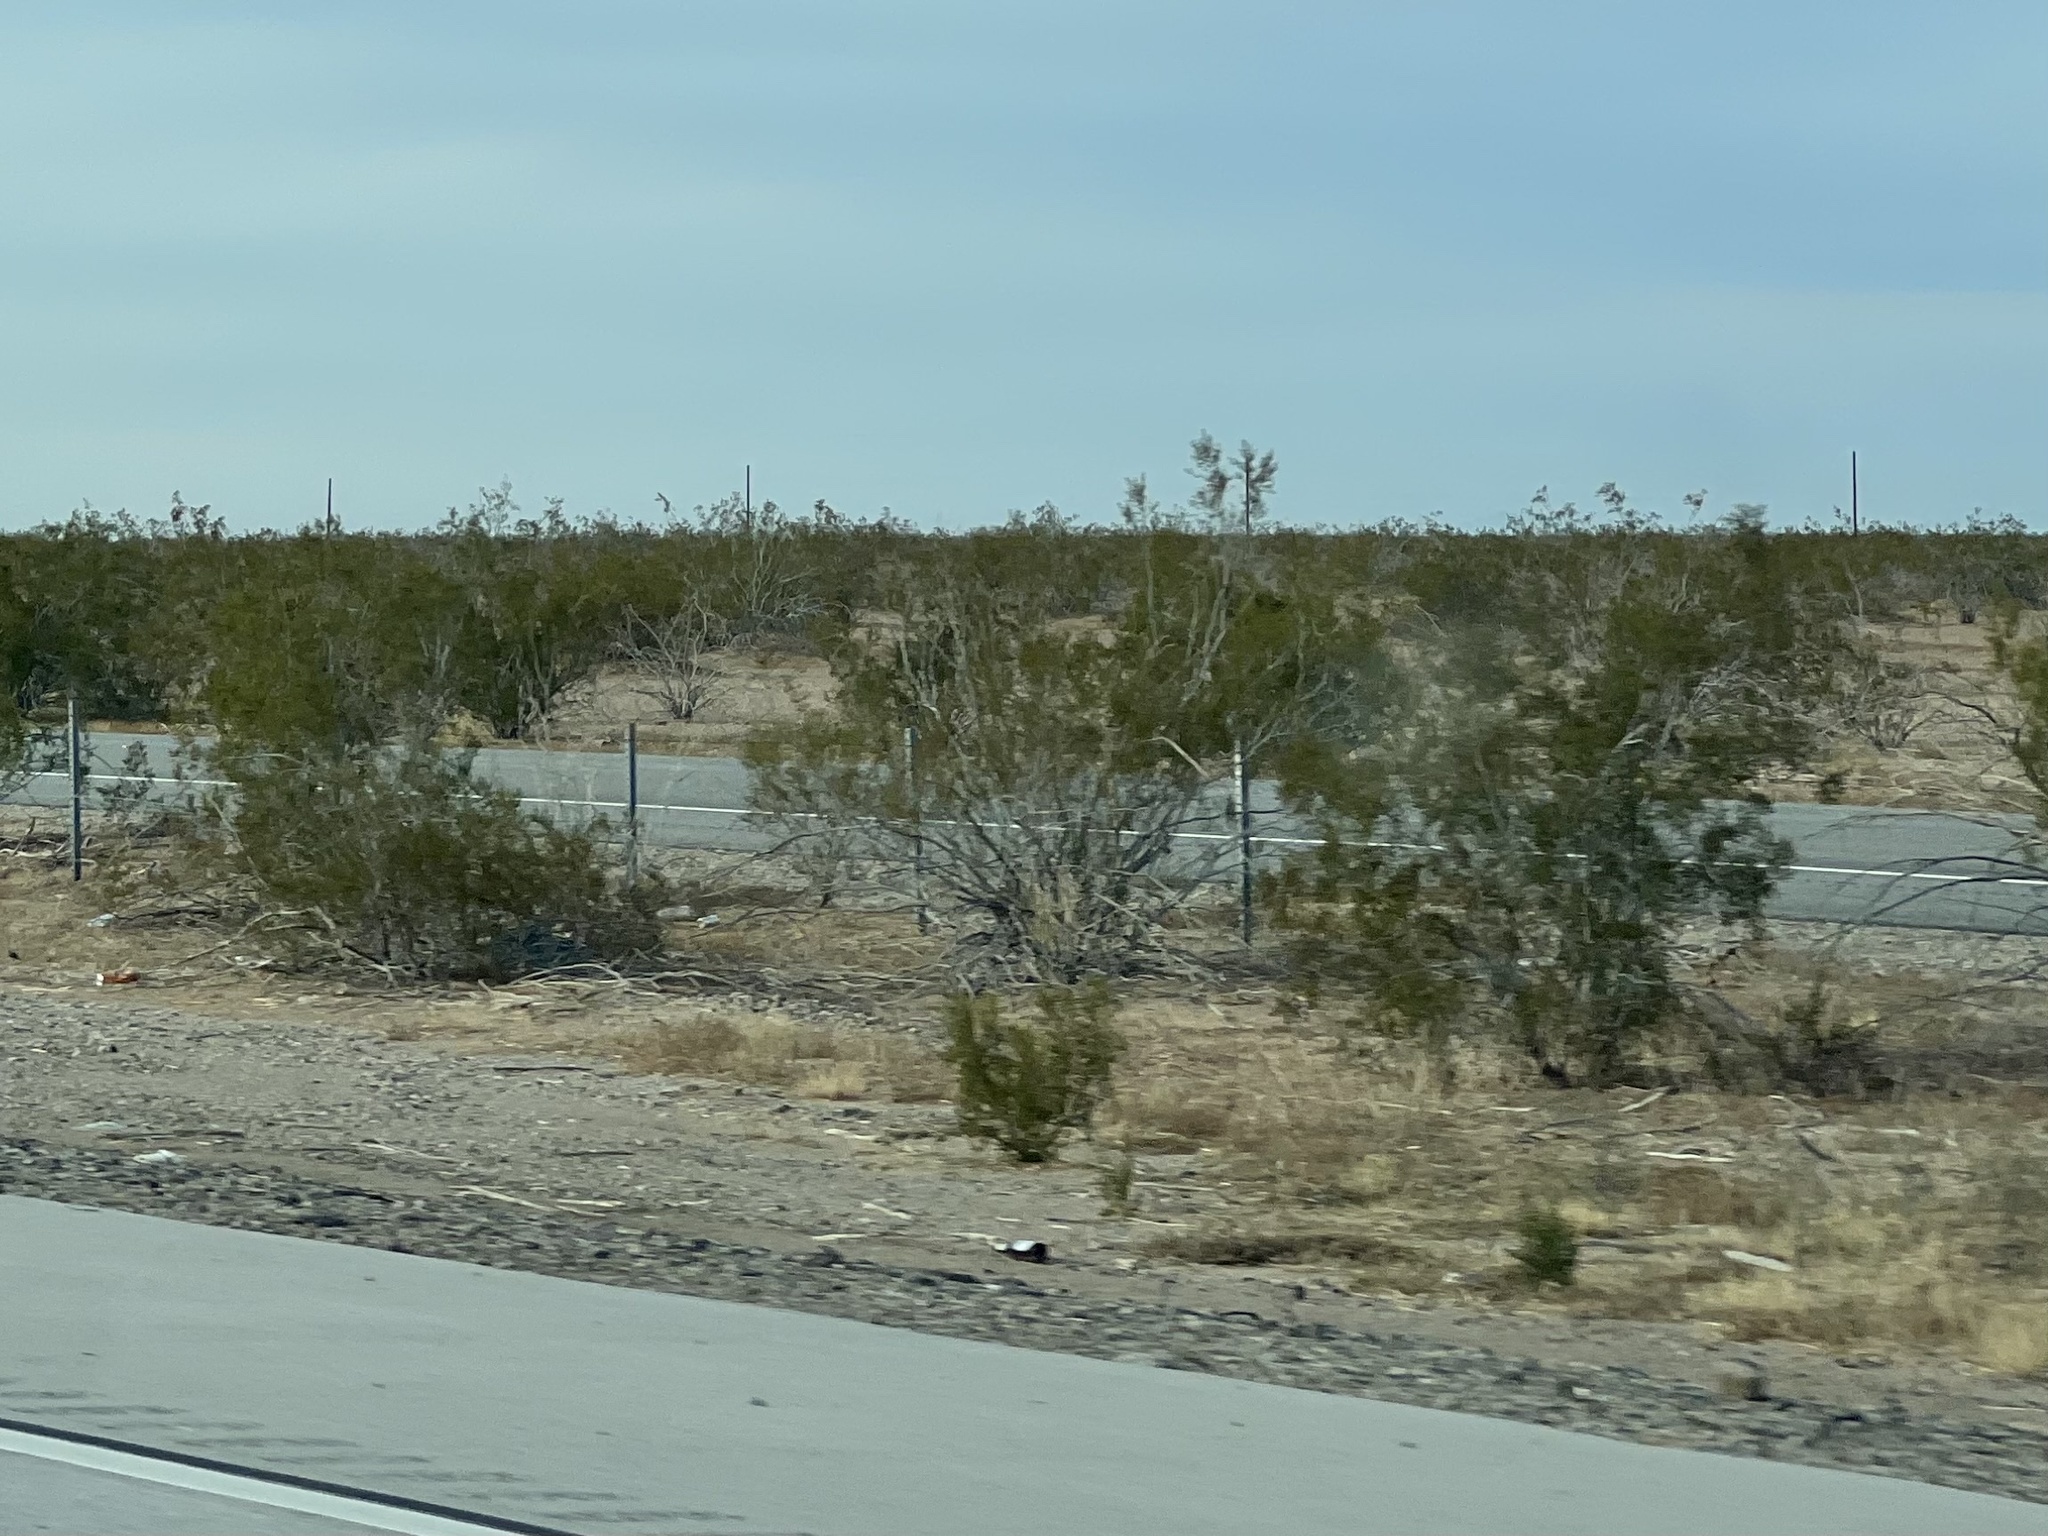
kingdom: Plantae
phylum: Tracheophyta
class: Magnoliopsida
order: Zygophyllales
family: Zygophyllaceae
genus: Larrea
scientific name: Larrea tridentata
